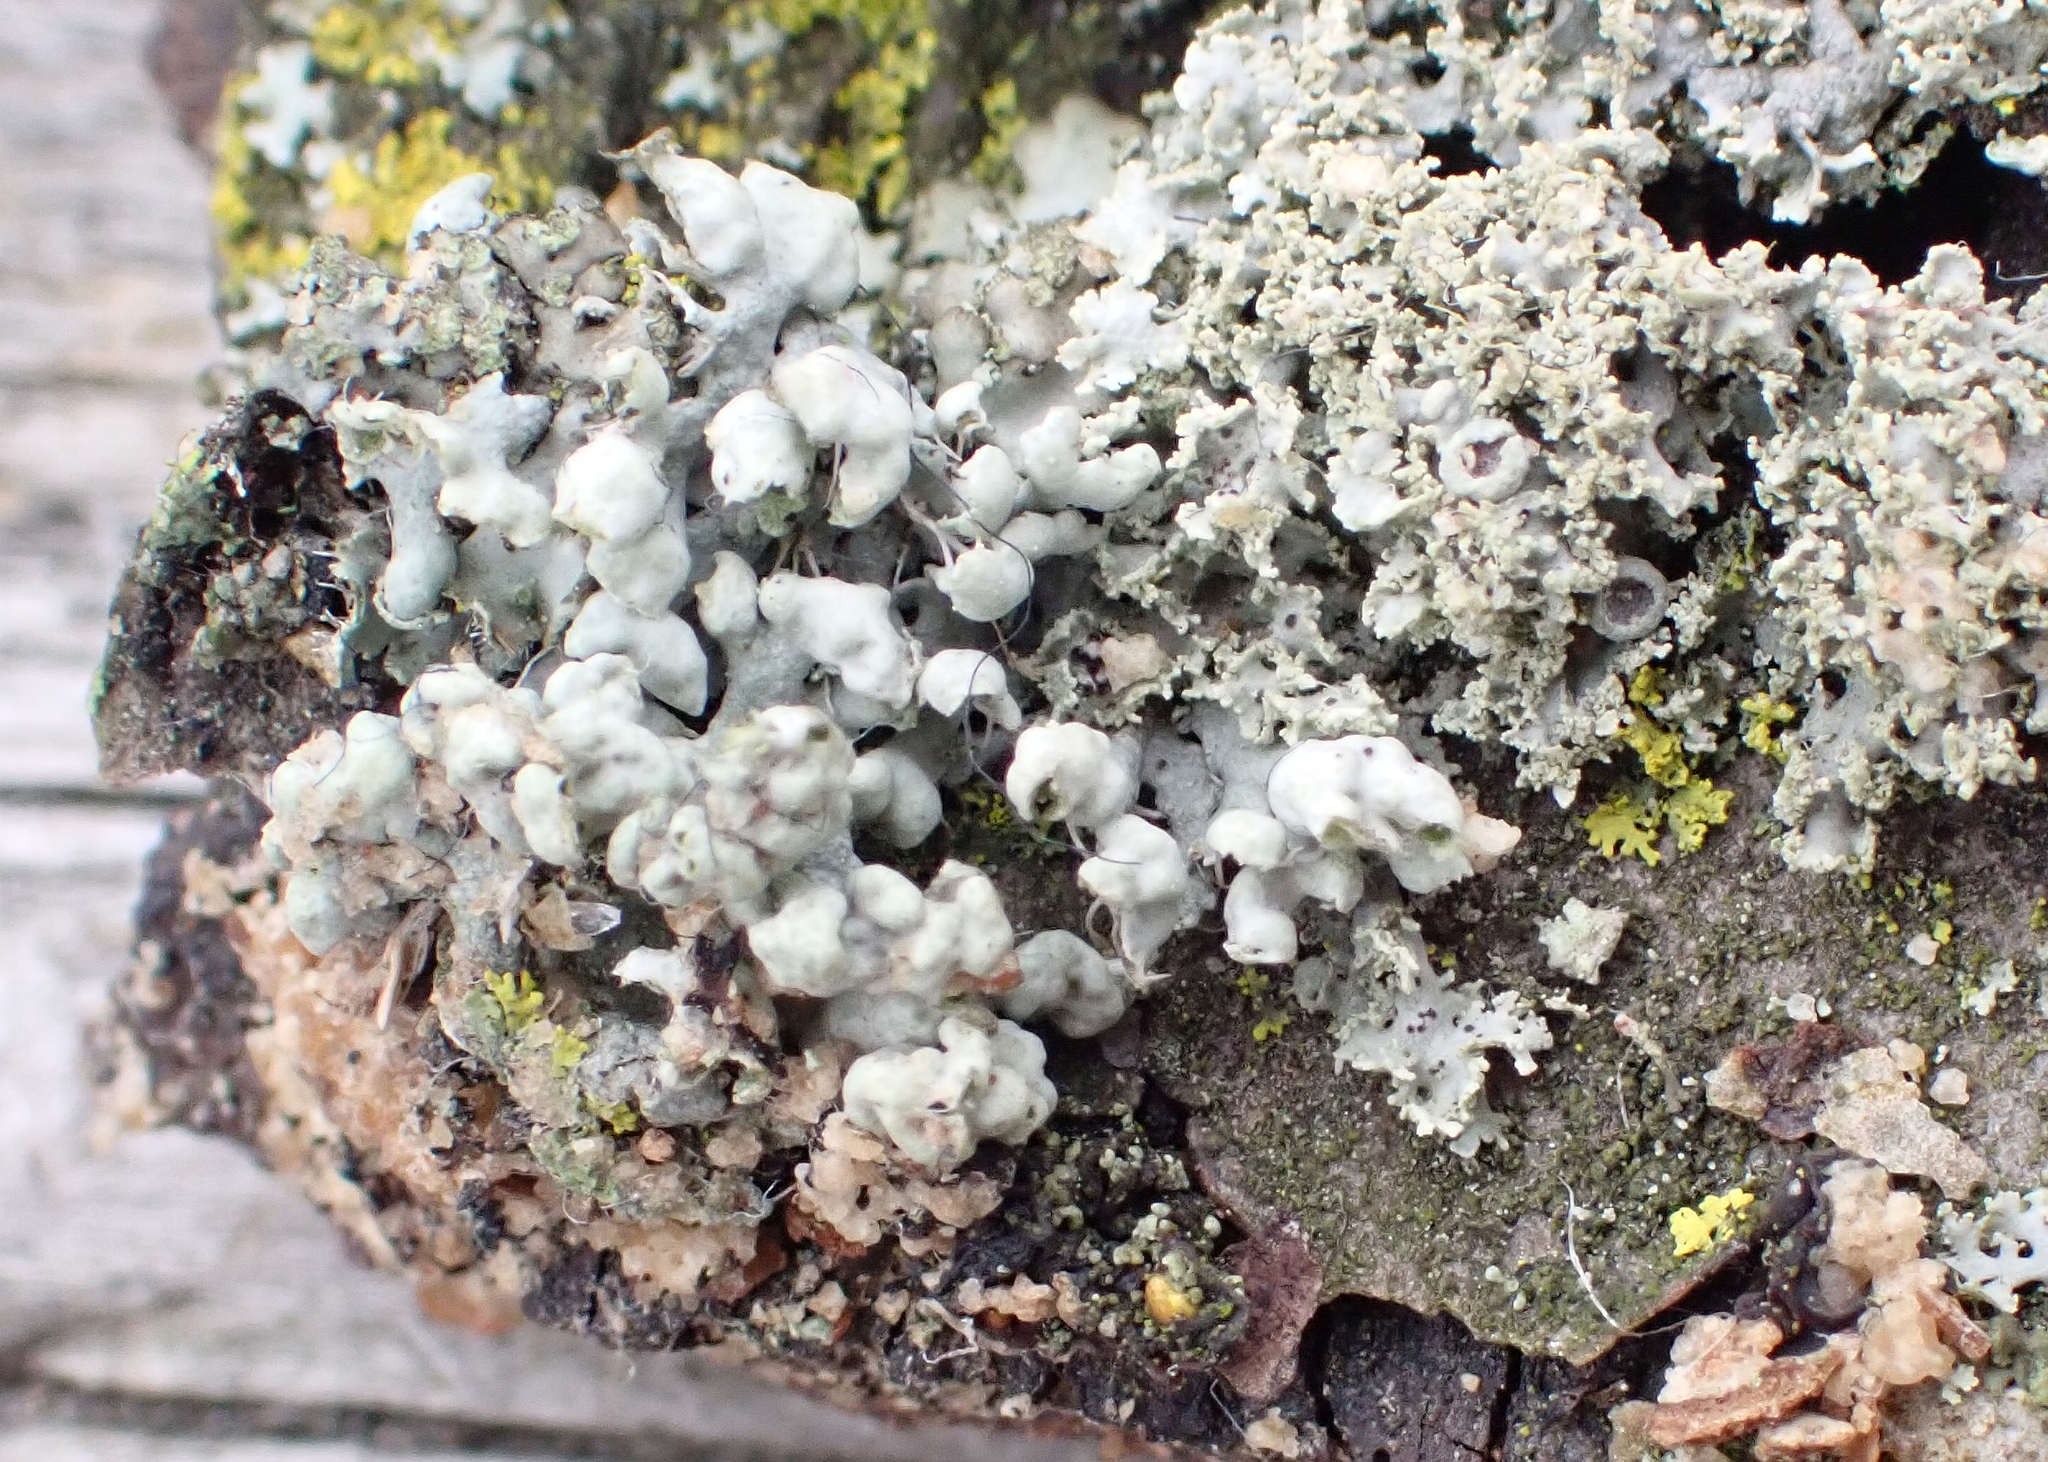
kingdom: Fungi
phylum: Ascomycota
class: Lecanoromycetes
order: Caliciales
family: Physciaceae
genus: Physcia
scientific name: Physcia adscendens
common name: Hooded rosette lichen
